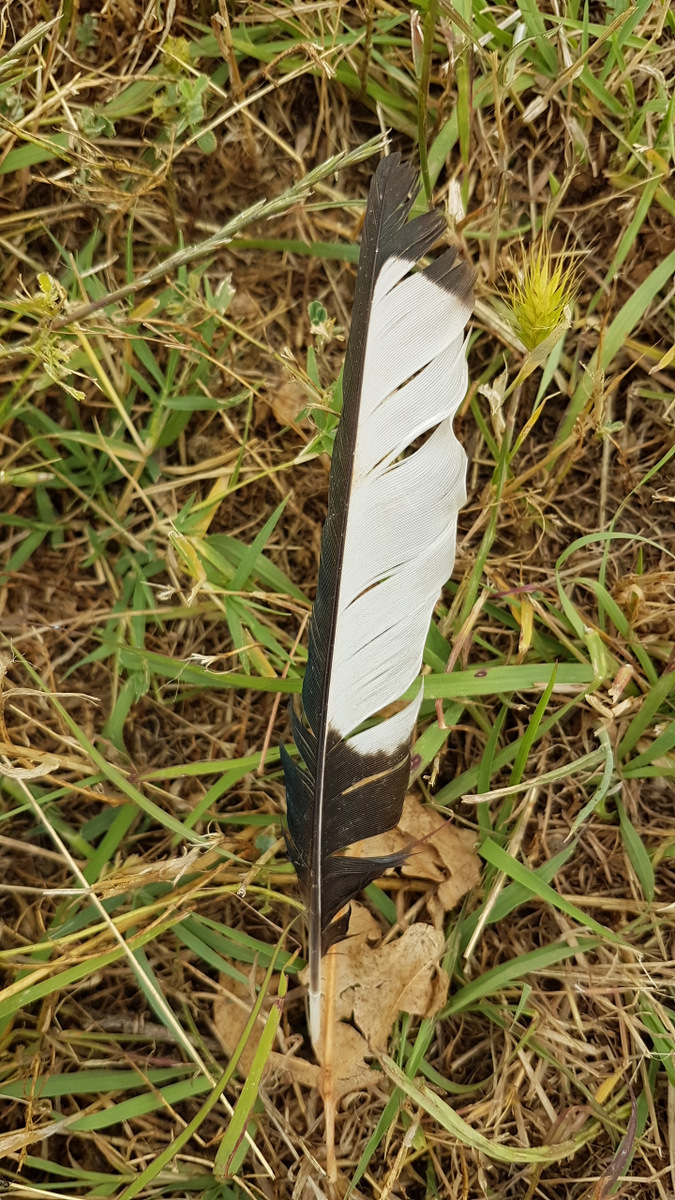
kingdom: Animalia
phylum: Chordata
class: Aves
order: Passeriformes
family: Corvidae
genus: Pica
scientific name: Pica pica
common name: Eurasian magpie
